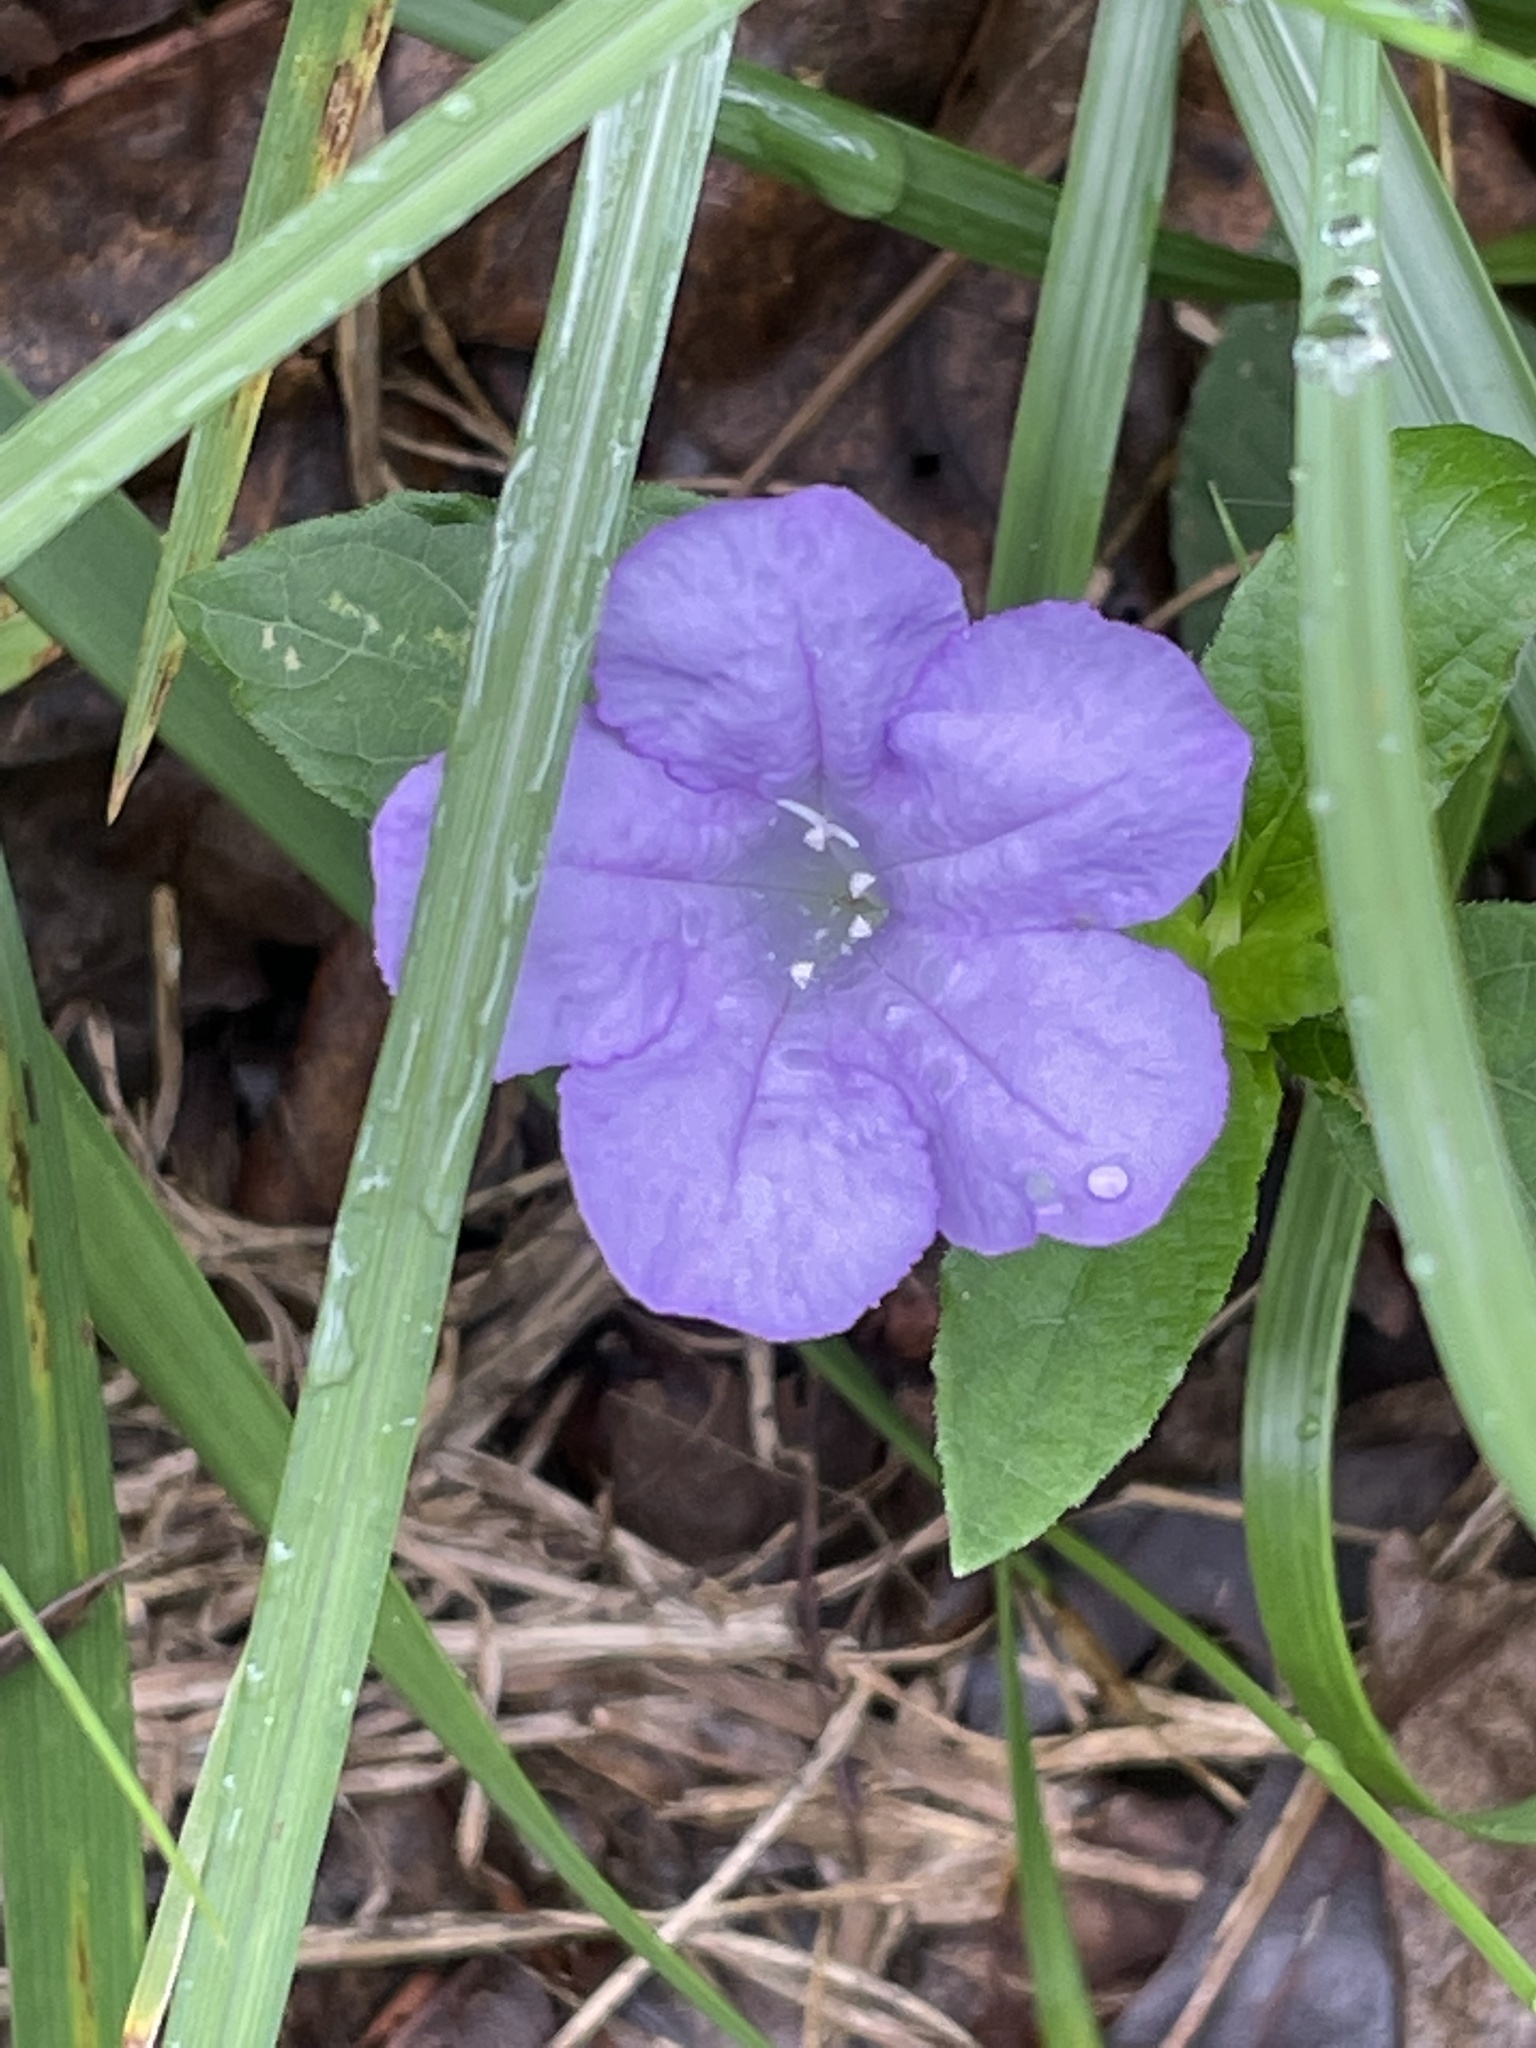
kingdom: Plantae
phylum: Tracheophyta
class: Magnoliopsida
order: Lamiales
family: Acanthaceae
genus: Ruellia
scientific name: Ruellia caroliniensis
